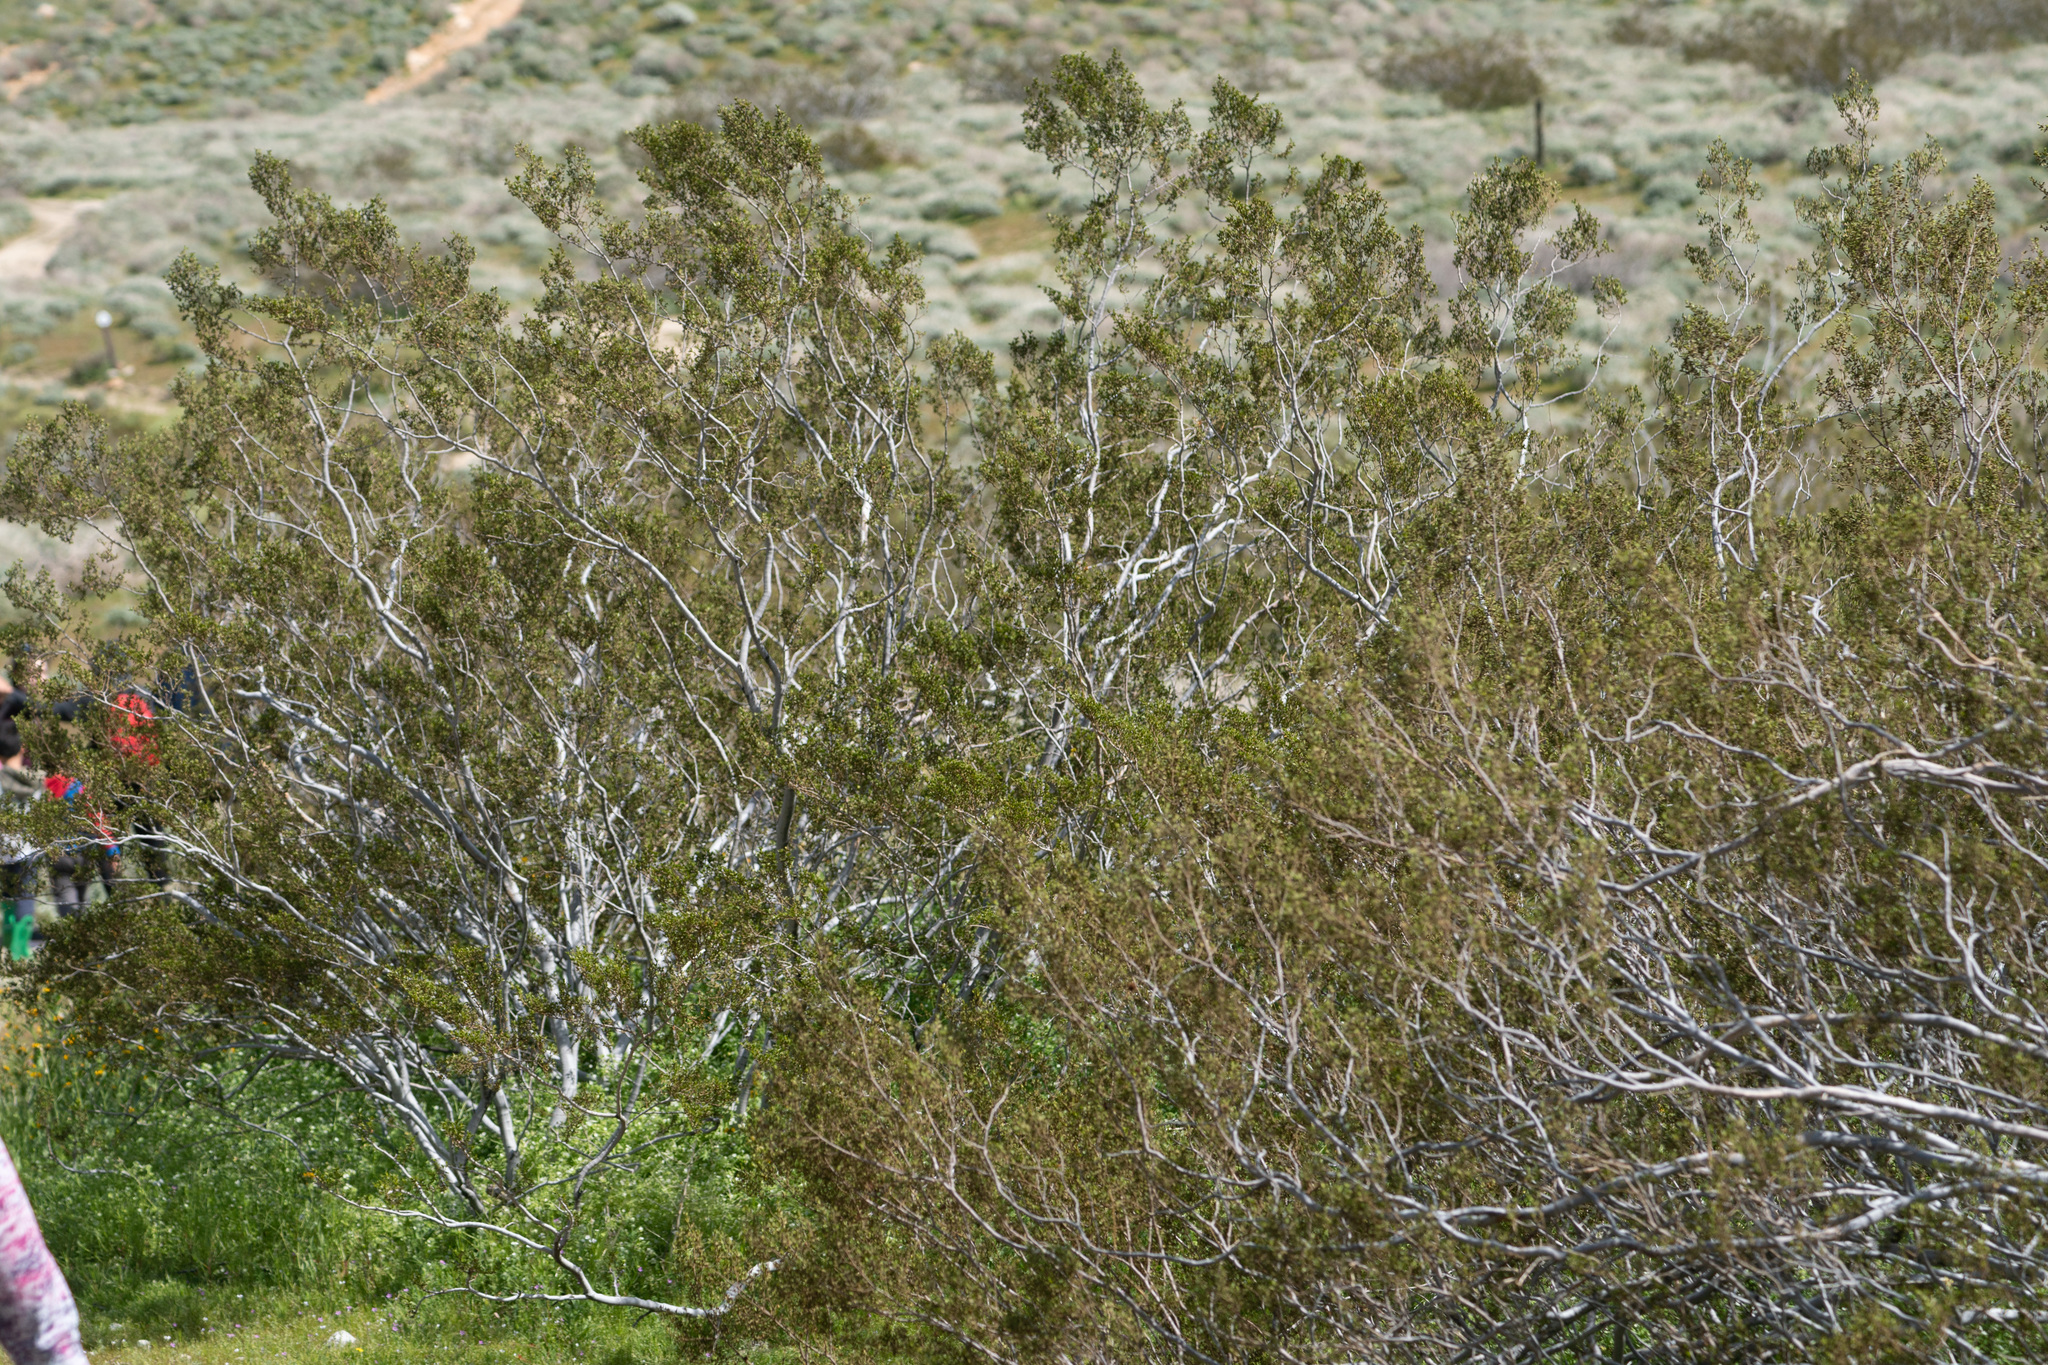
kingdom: Plantae
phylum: Tracheophyta
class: Magnoliopsida
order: Zygophyllales
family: Zygophyllaceae
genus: Larrea
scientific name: Larrea tridentata
